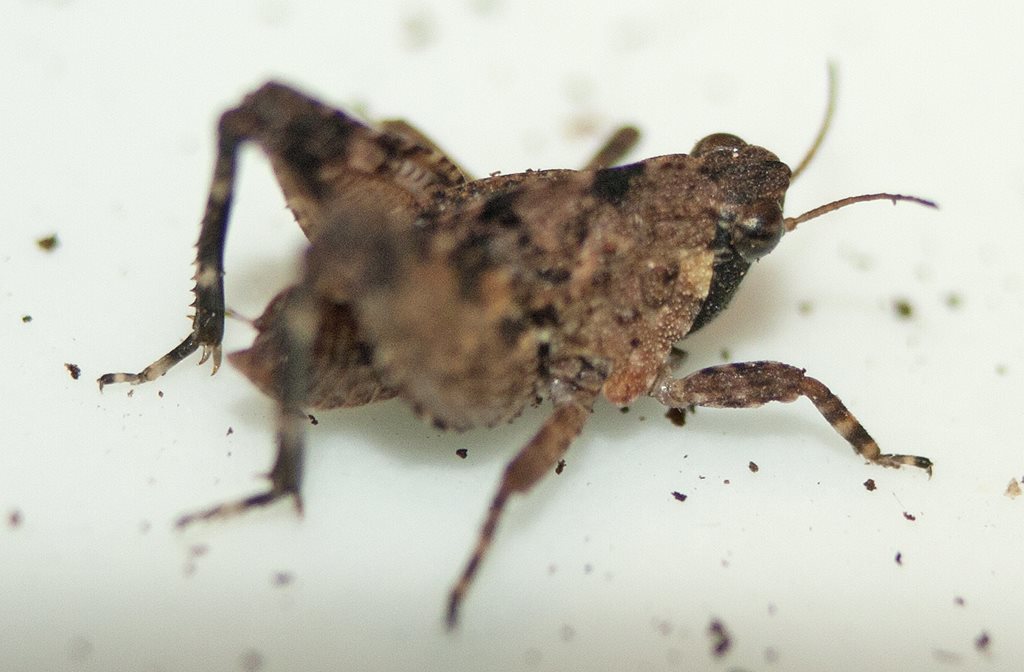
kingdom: Animalia
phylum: Arthropoda
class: Insecta
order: Orthoptera
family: Tetrigidae
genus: Tetrix
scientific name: Tetrix irrupta
